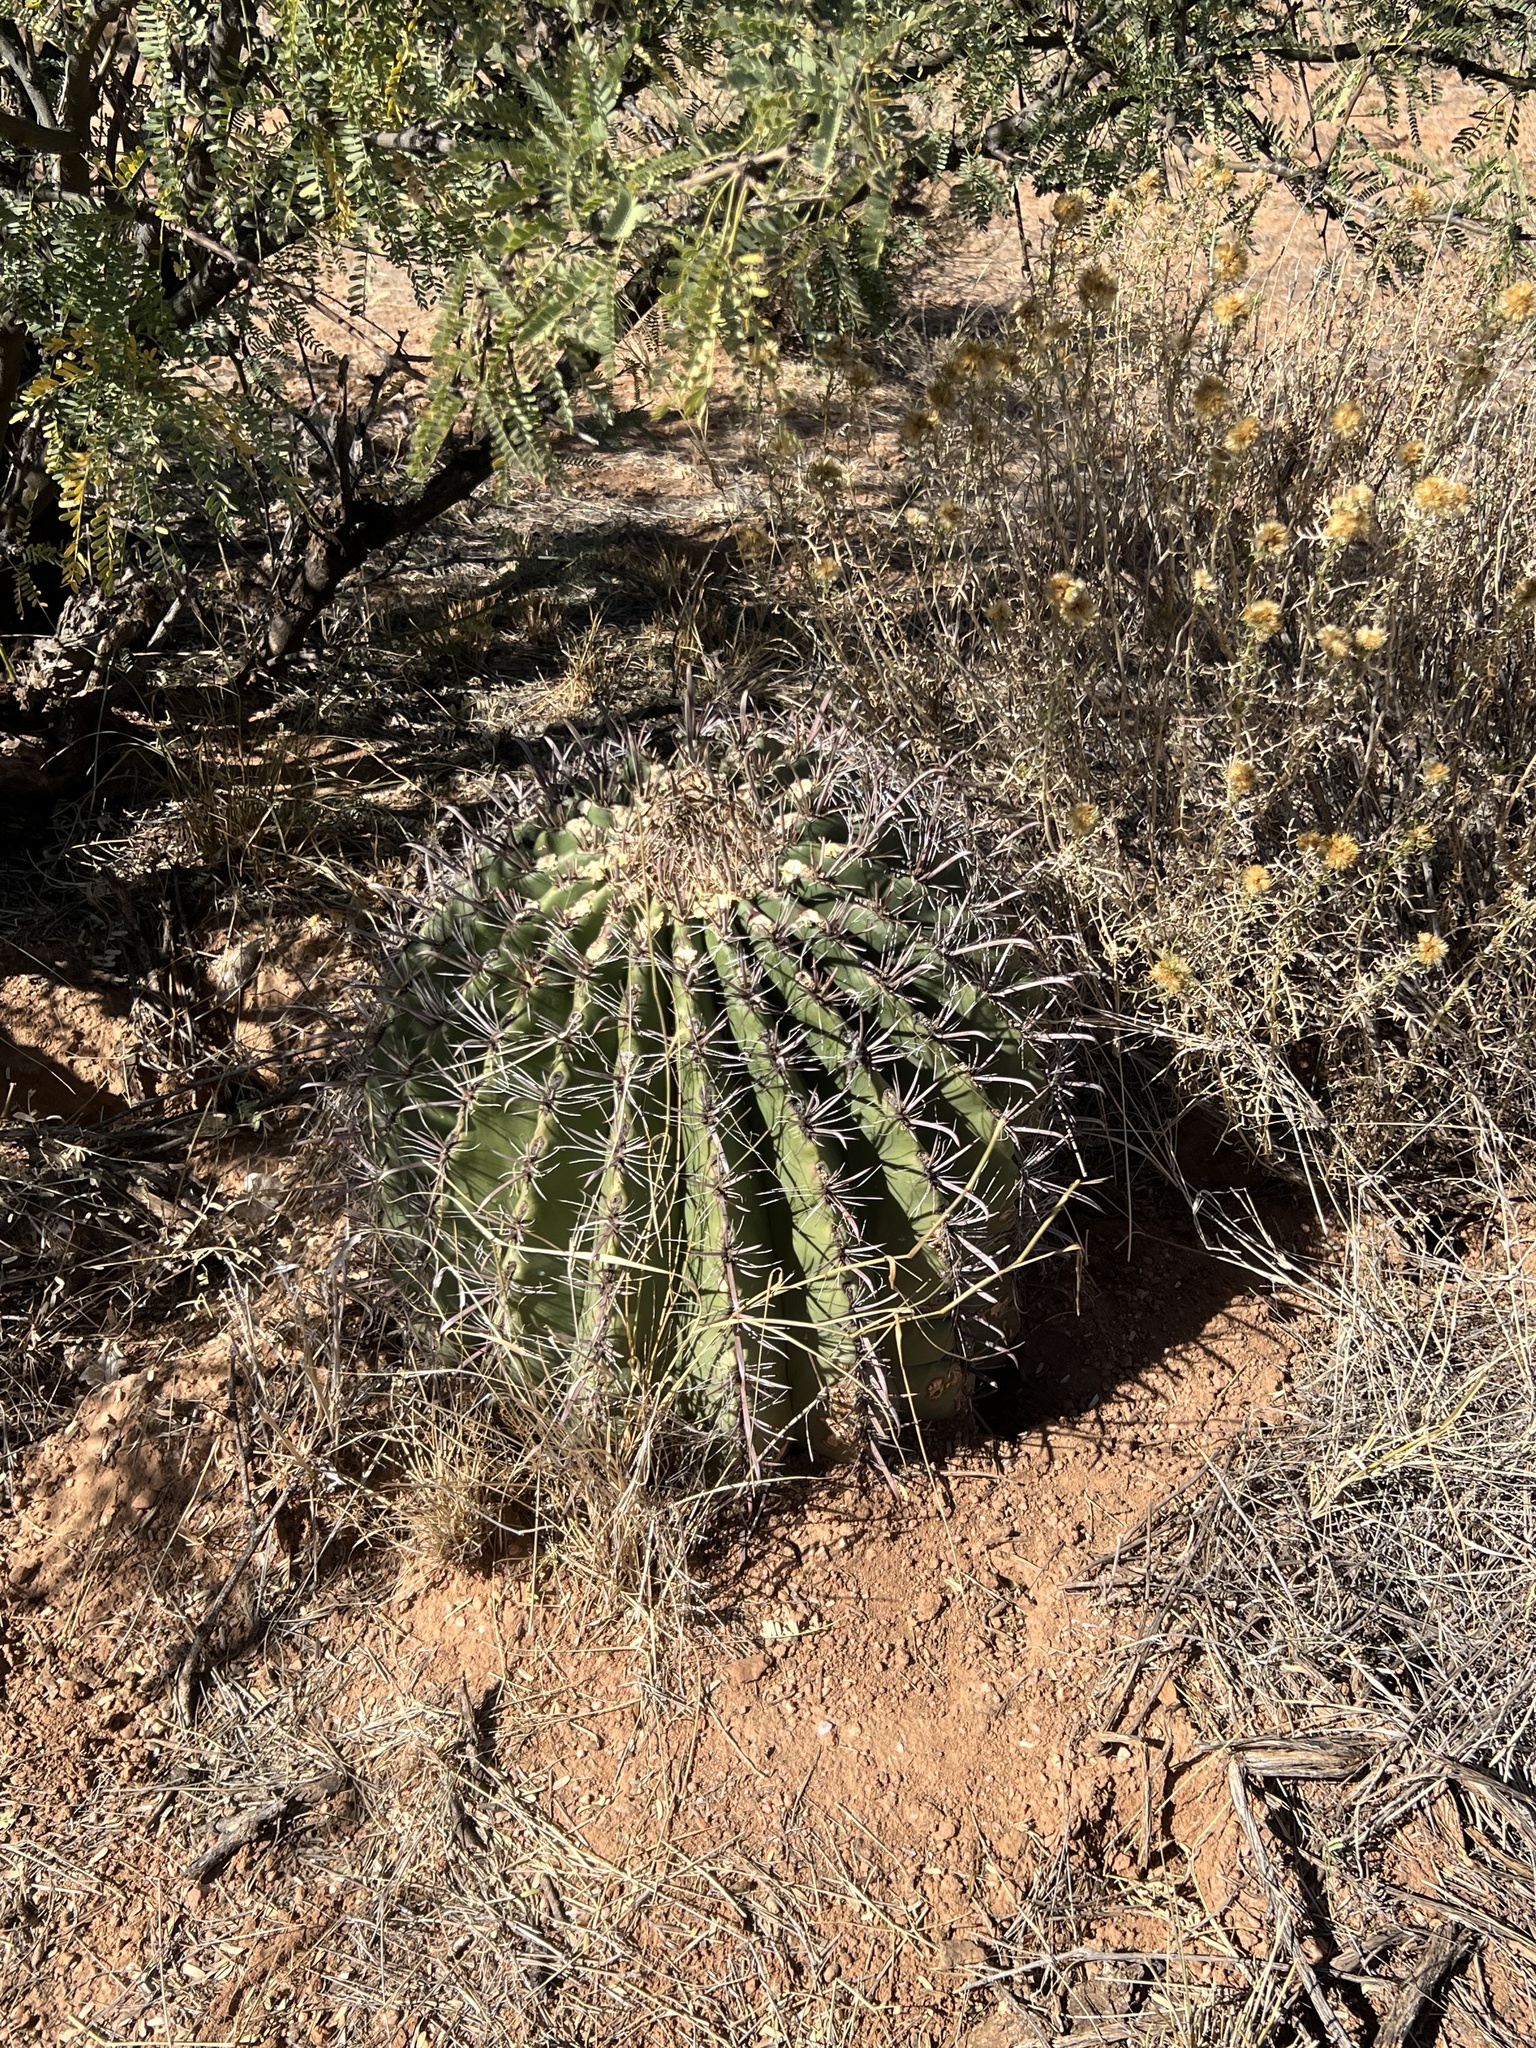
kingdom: Plantae
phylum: Tracheophyta
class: Magnoliopsida
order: Caryophyllales
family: Cactaceae
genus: Ferocactus
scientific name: Ferocactus wislizeni
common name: Candy barrel cactus
